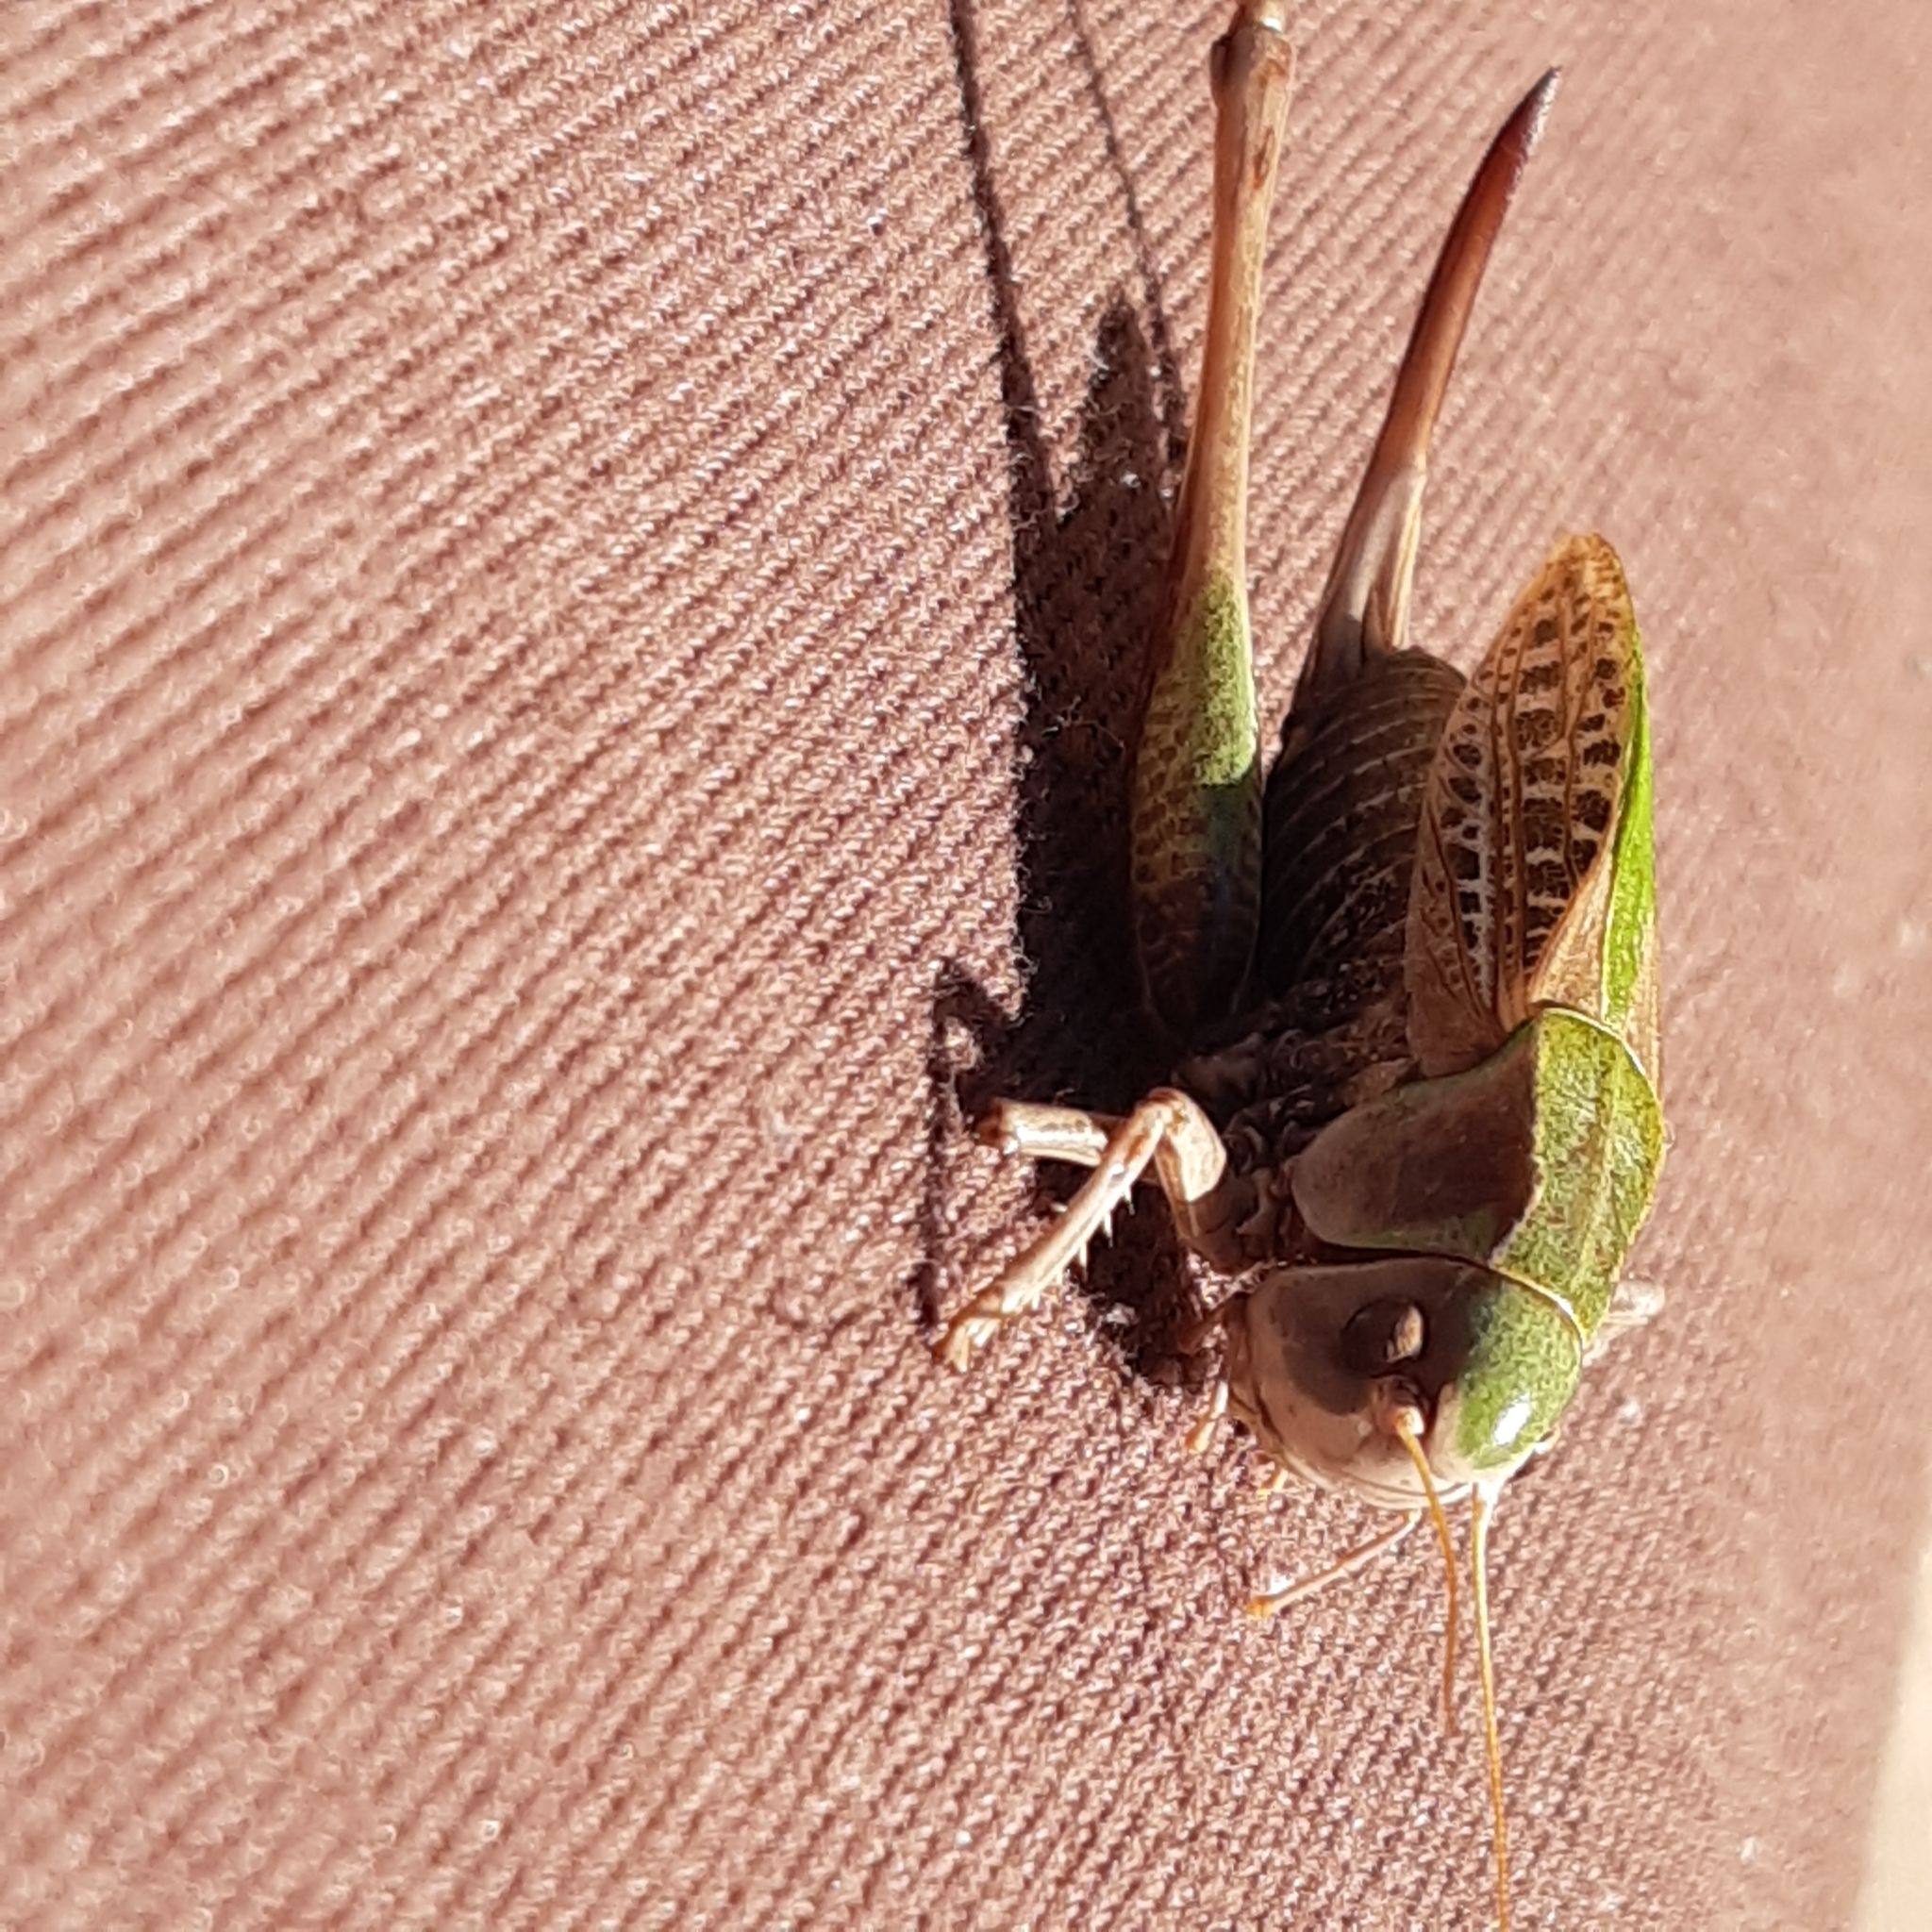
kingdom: Animalia
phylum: Arthropoda
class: Insecta
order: Orthoptera
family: Tettigoniidae
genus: Decticus
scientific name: Decticus verrucivorus
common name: Wart-biter
